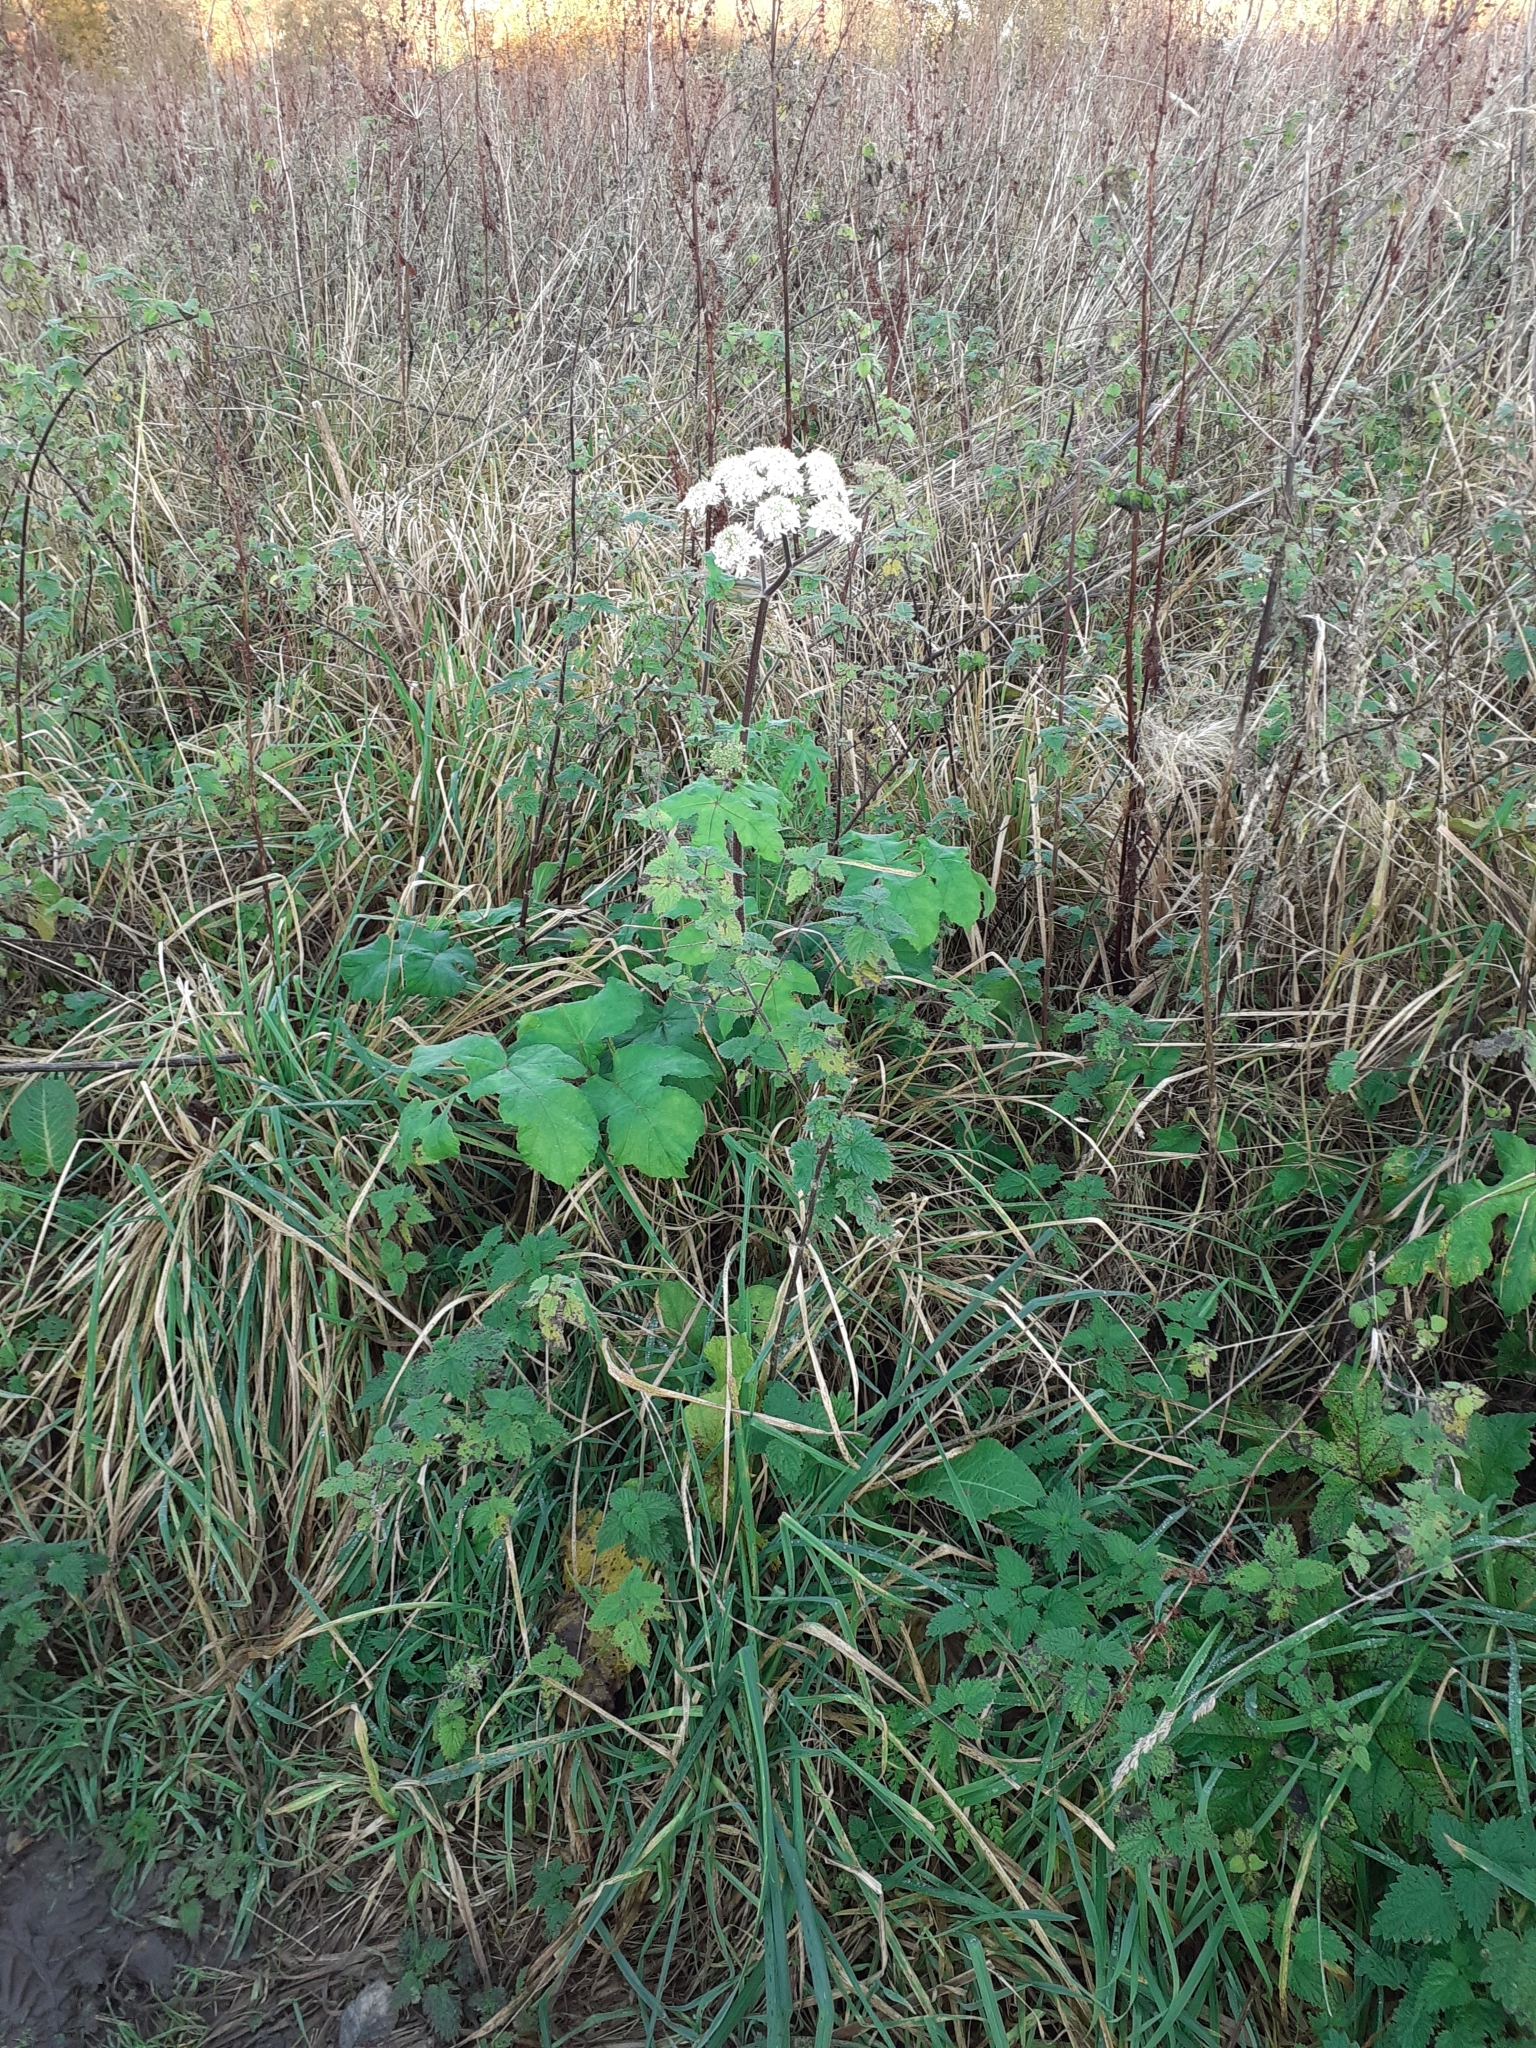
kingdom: Plantae
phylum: Tracheophyta
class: Magnoliopsida
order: Apiales
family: Apiaceae
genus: Heracleum
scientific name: Heracleum sphondylium
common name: Hogweed
